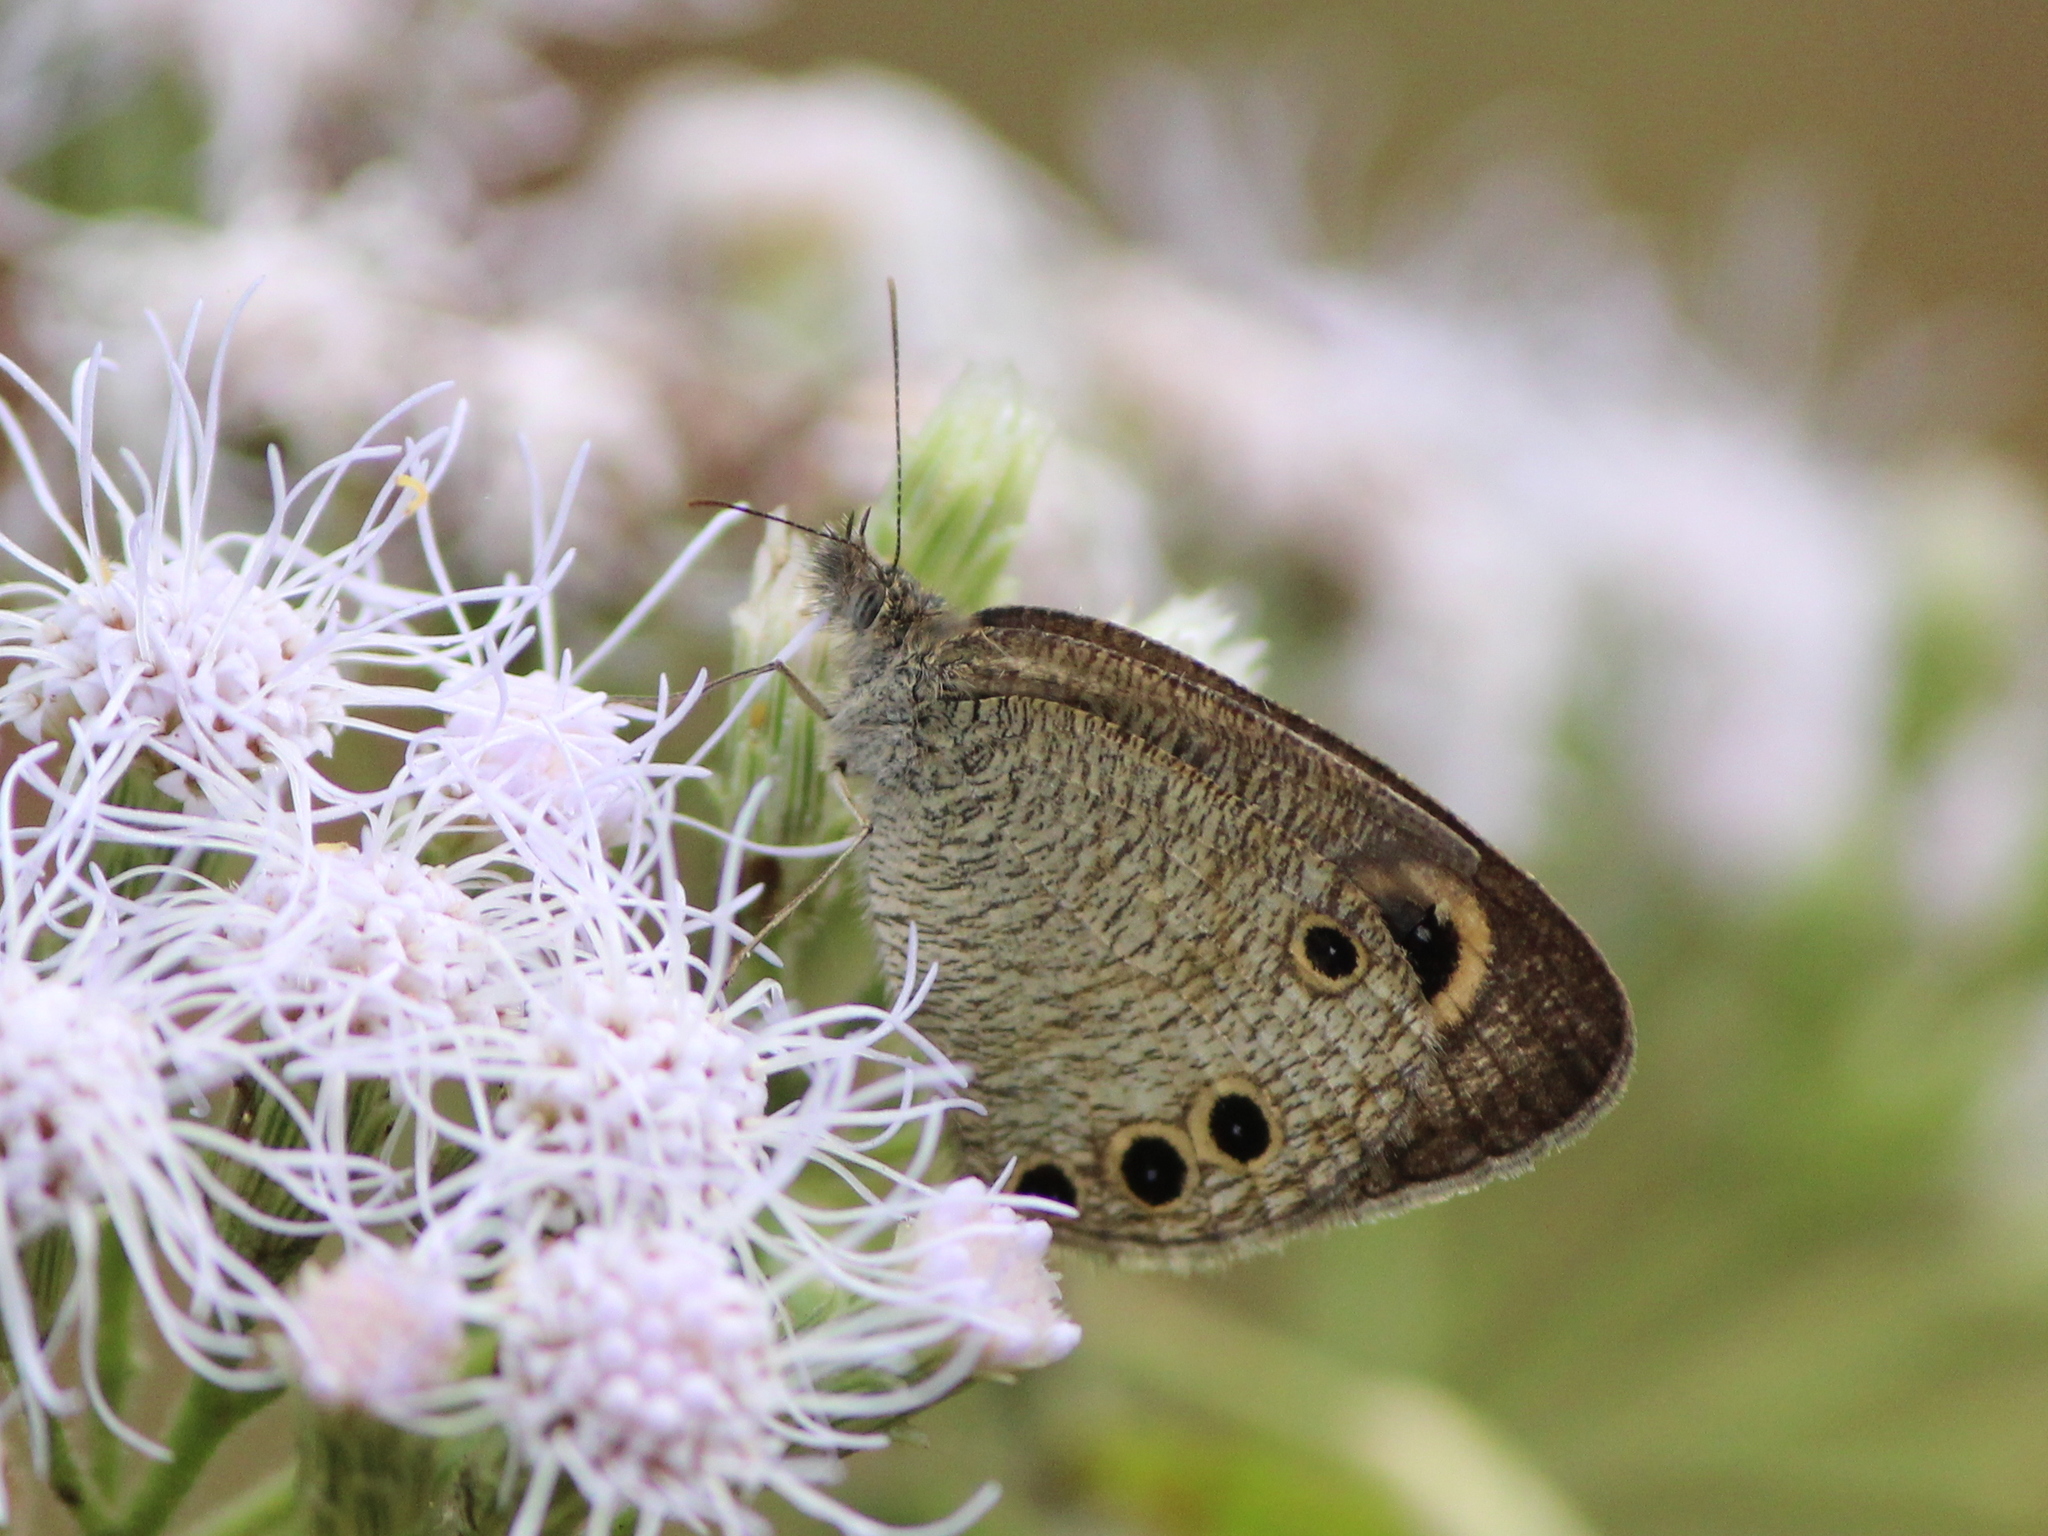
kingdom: Animalia
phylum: Arthropoda
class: Insecta
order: Lepidoptera
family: Nymphalidae
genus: Ypthima
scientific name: Ypthima huebneri
